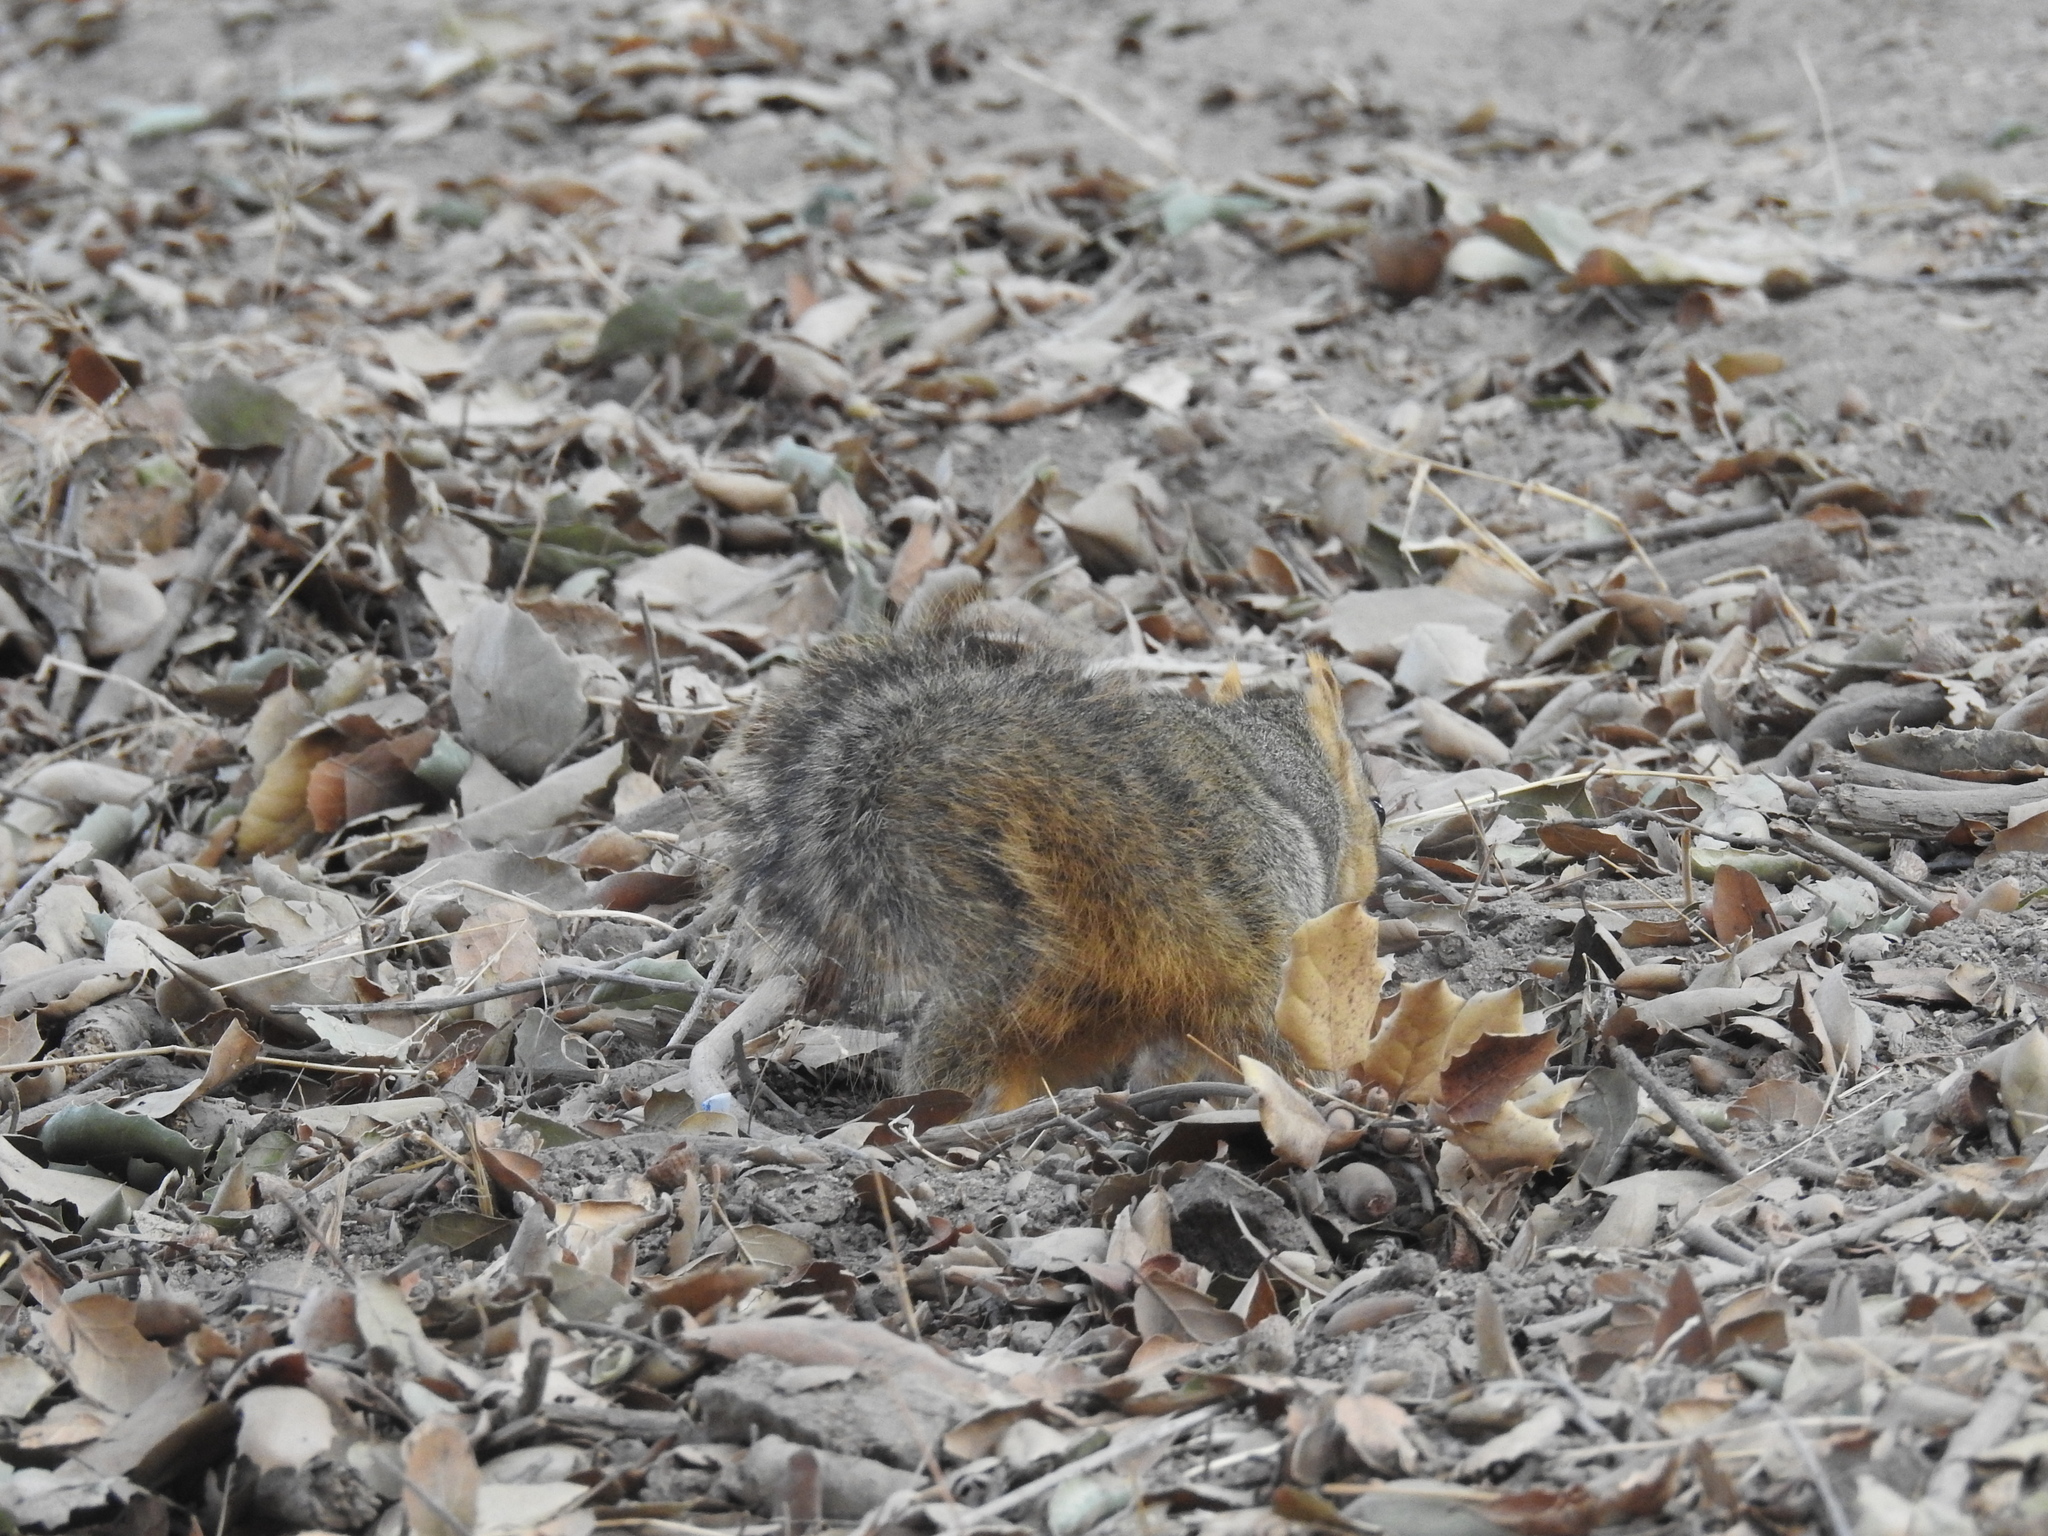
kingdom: Animalia
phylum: Chordata
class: Mammalia
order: Rodentia
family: Sciuridae
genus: Sciurus
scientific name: Sciurus niger
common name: Fox squirrel
